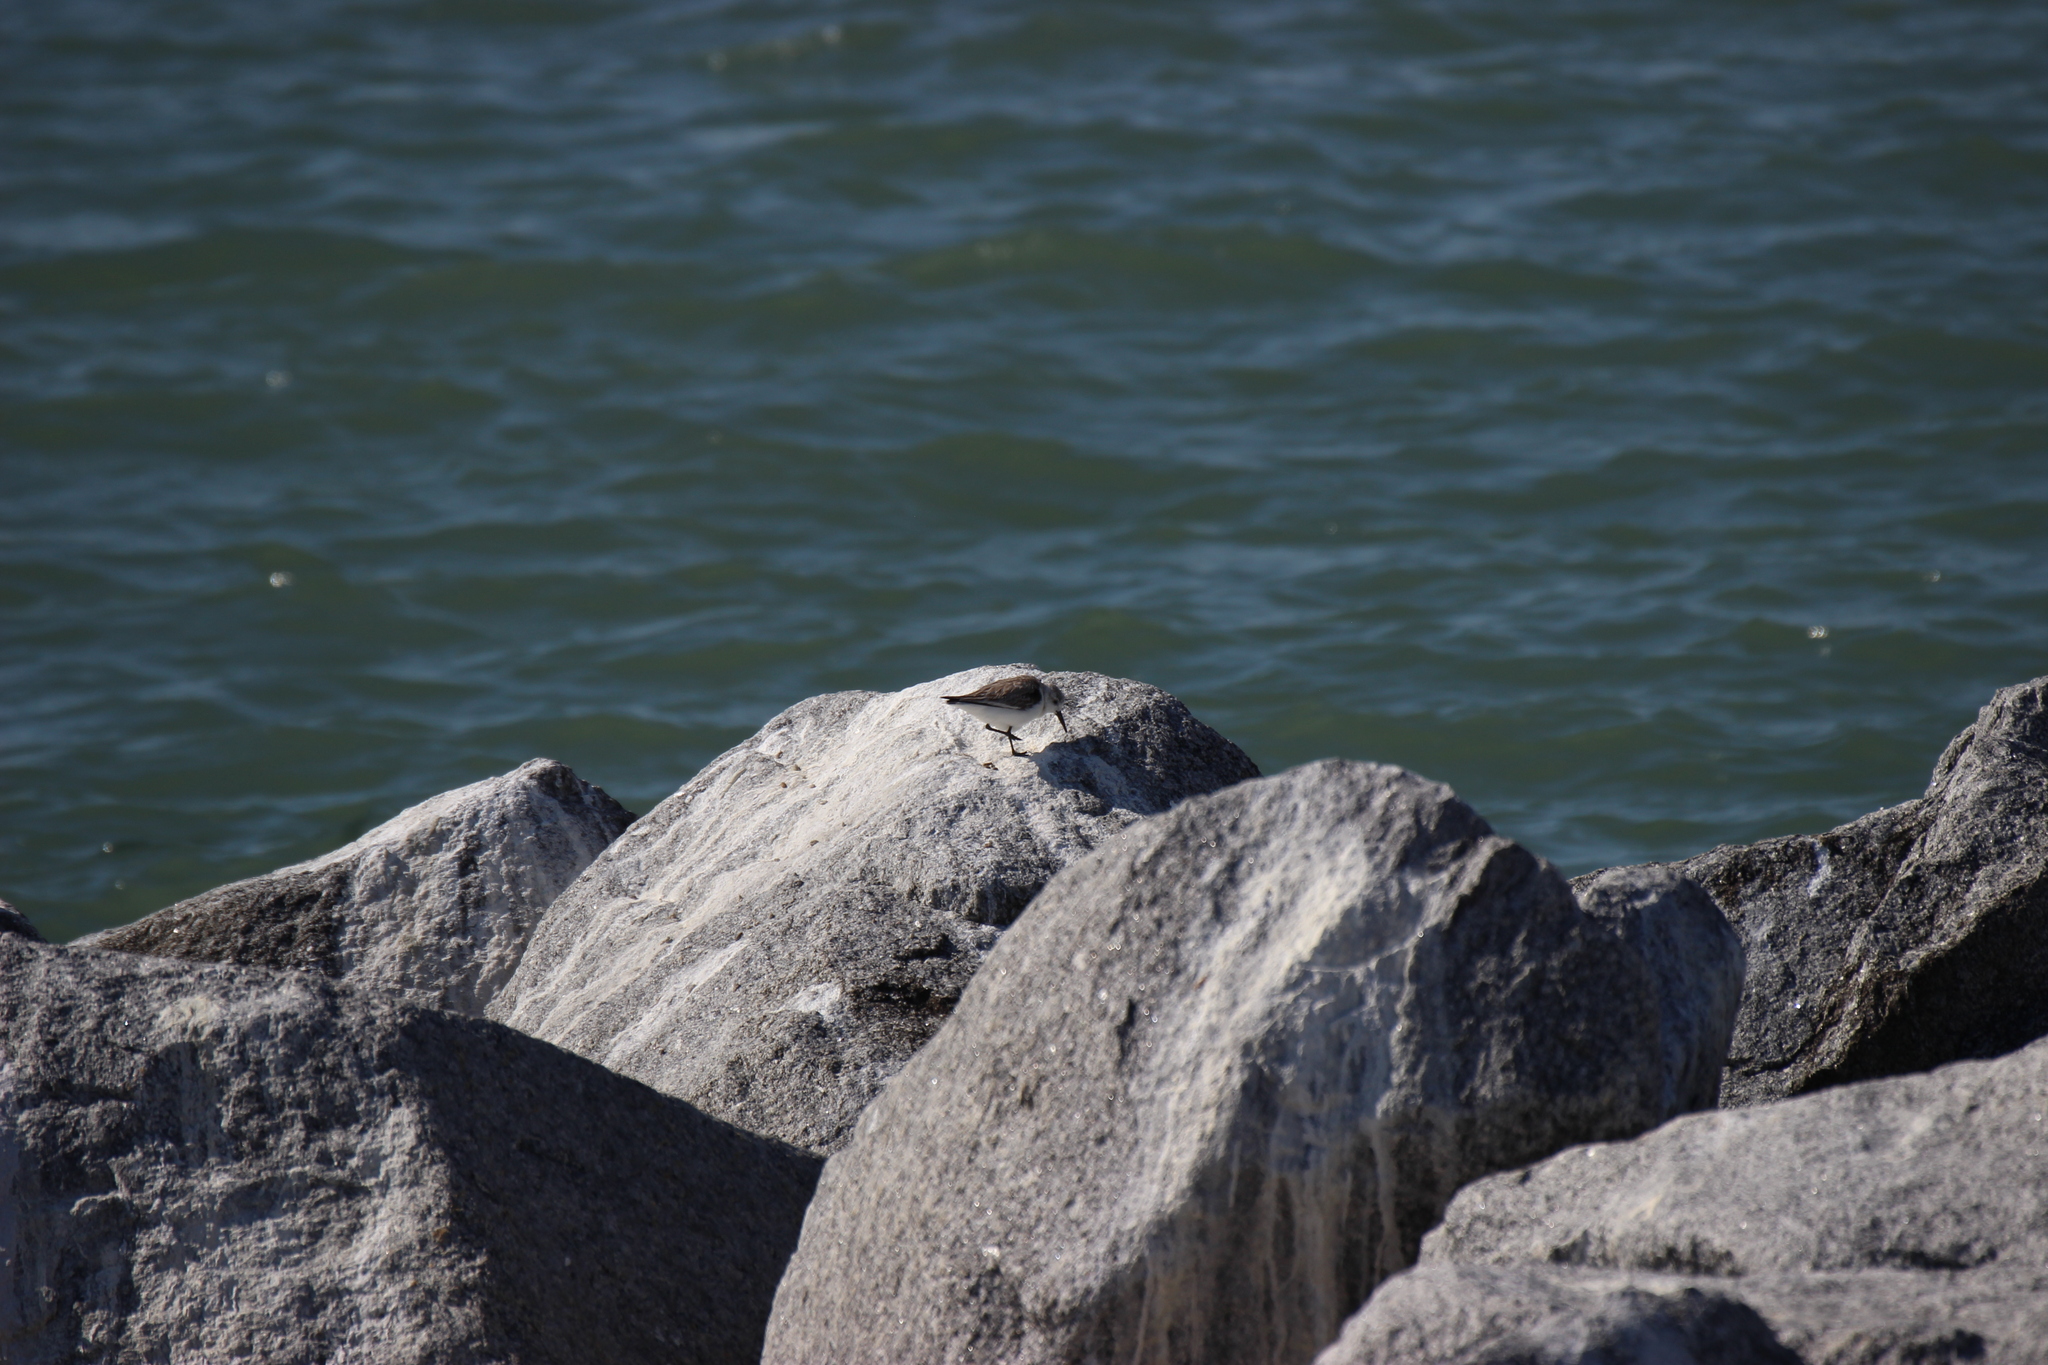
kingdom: Animalia
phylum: Chordata
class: Aves
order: Charadriiformes
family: Scolopacidae
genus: Calidris
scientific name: Calidris alba
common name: Sanderling
